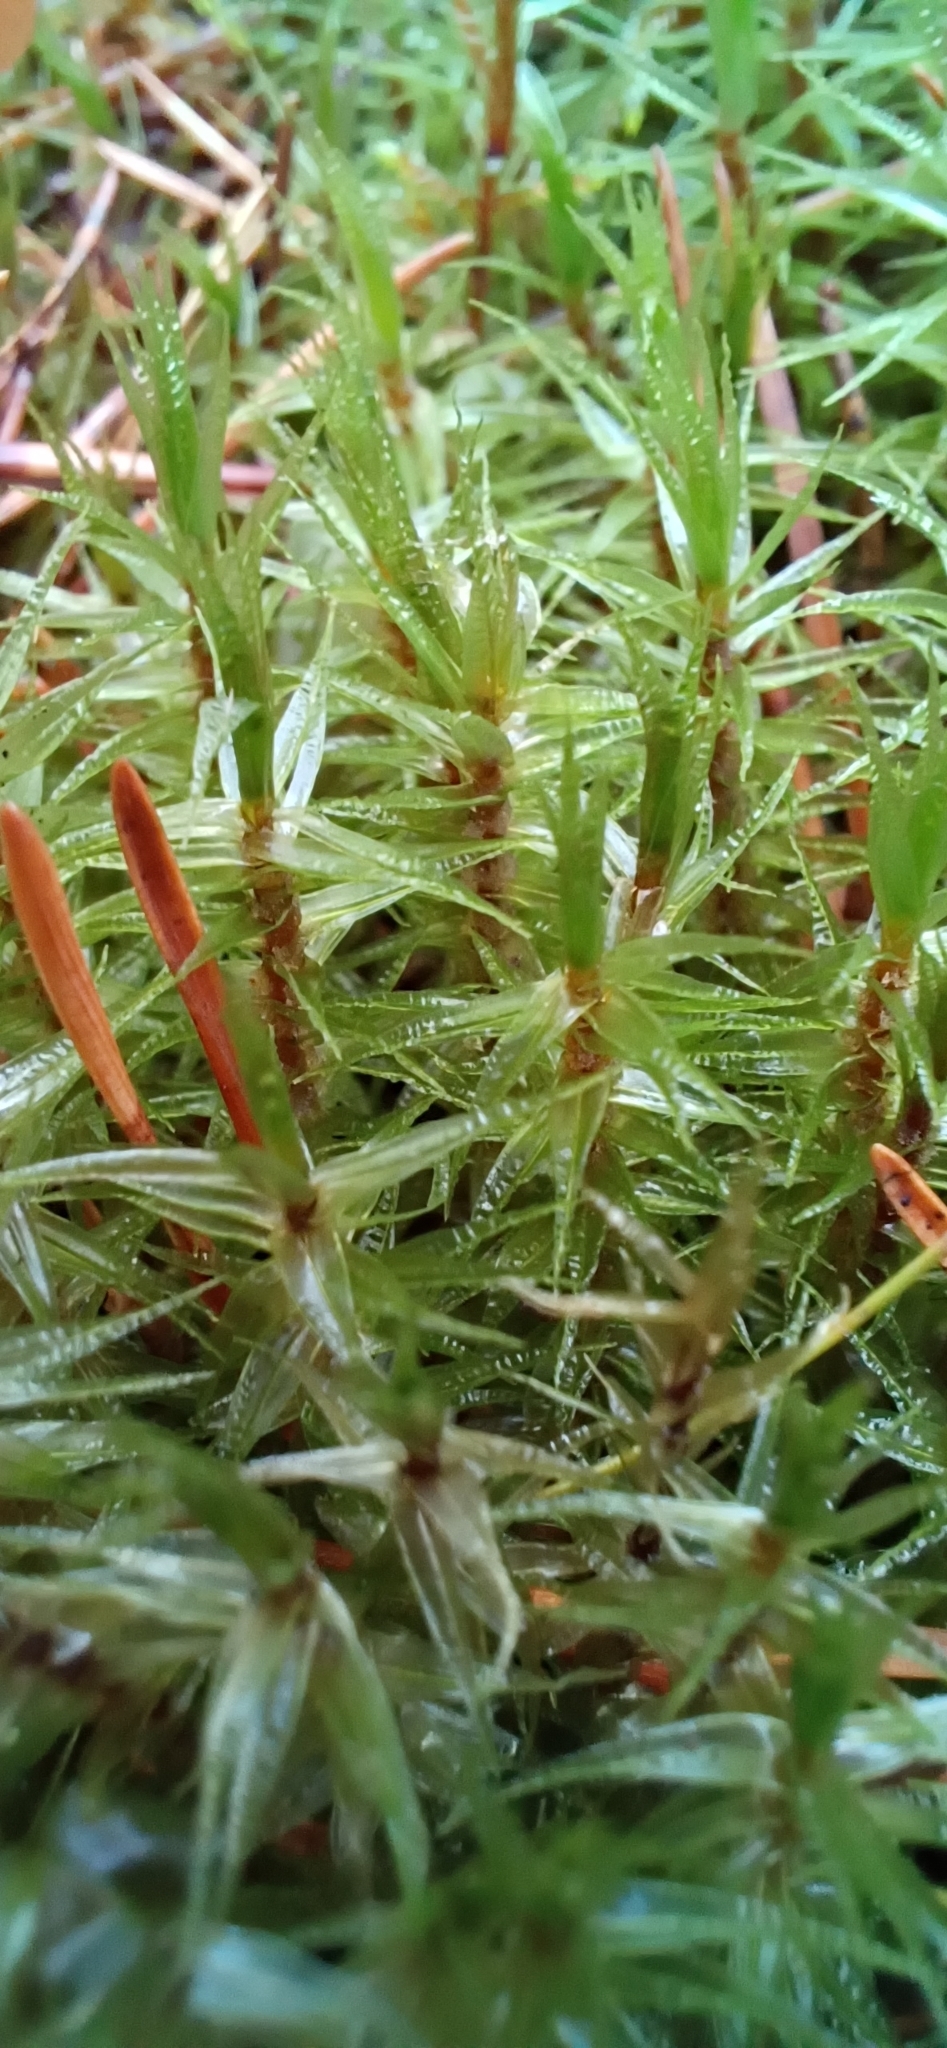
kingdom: Plantae
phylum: Bryophyta
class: Bryopsida
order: Dicranales
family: Dicranaceae
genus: Dicranum
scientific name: Dicranum polysetum
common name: Rugose fork-moss
